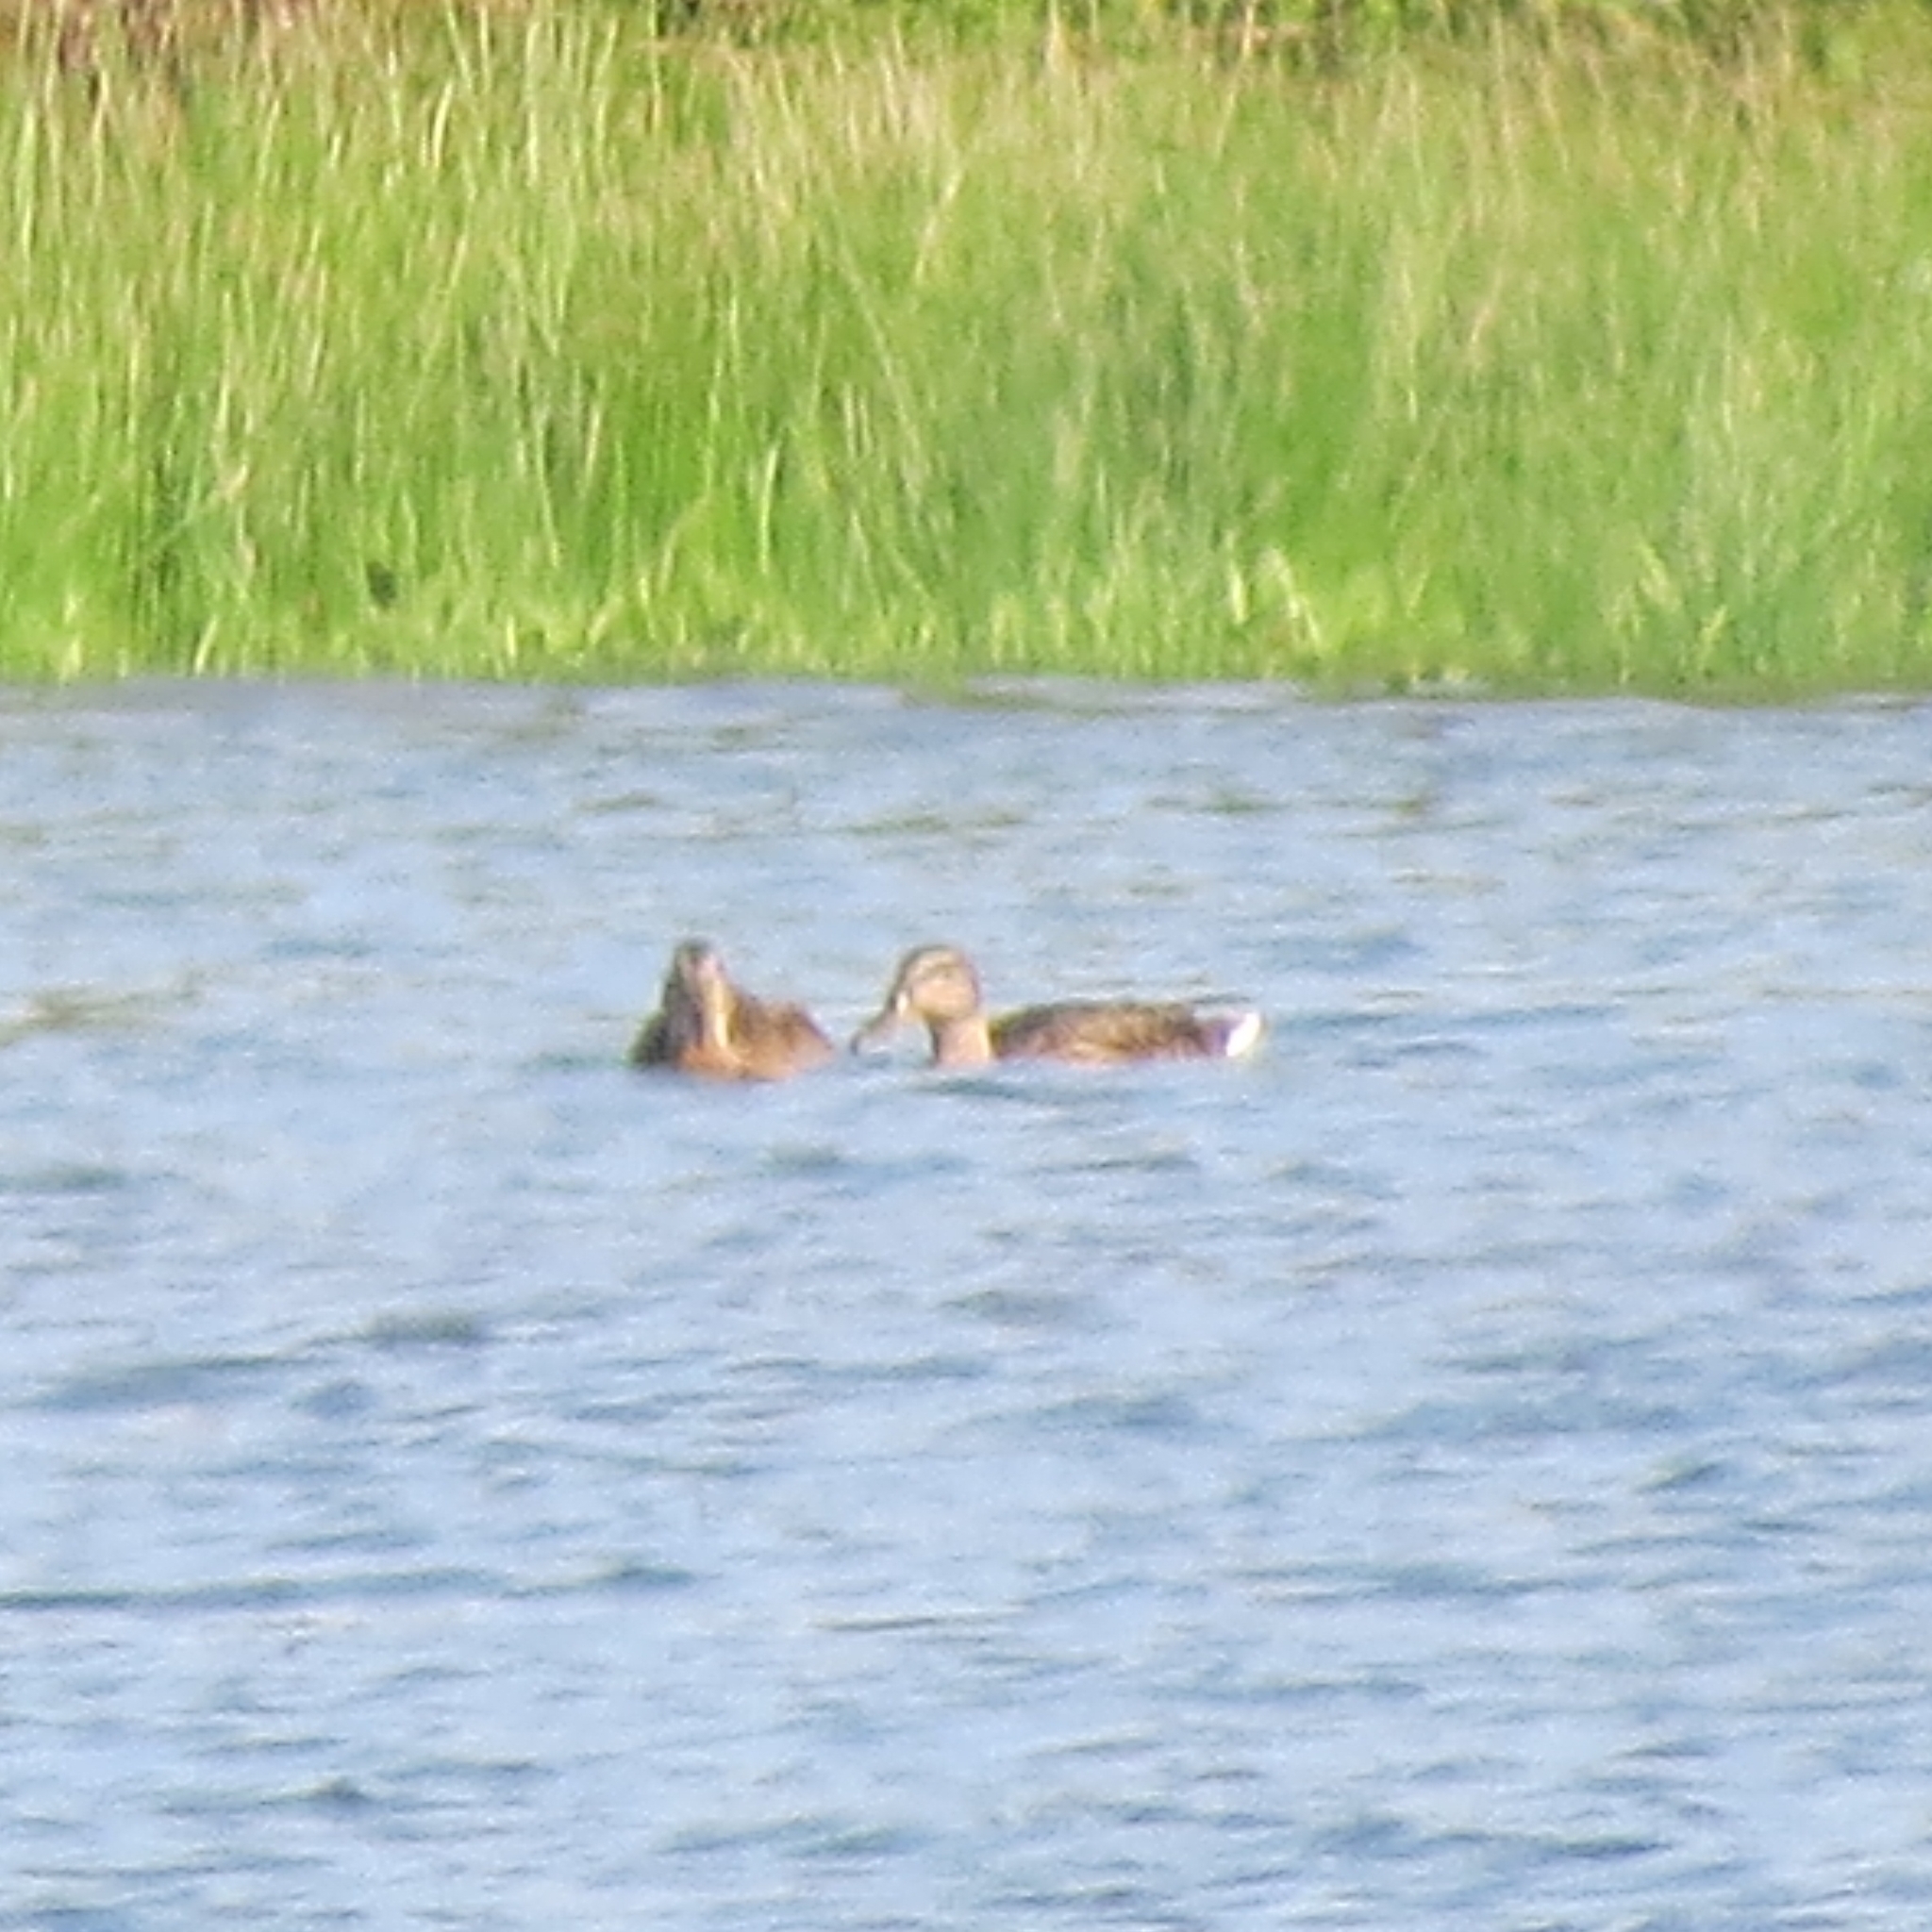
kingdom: Animalia
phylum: Chordata
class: Aves
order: Anseriformes
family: Anatidae
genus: Anas
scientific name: Anas platyrhynchos
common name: Mallard
